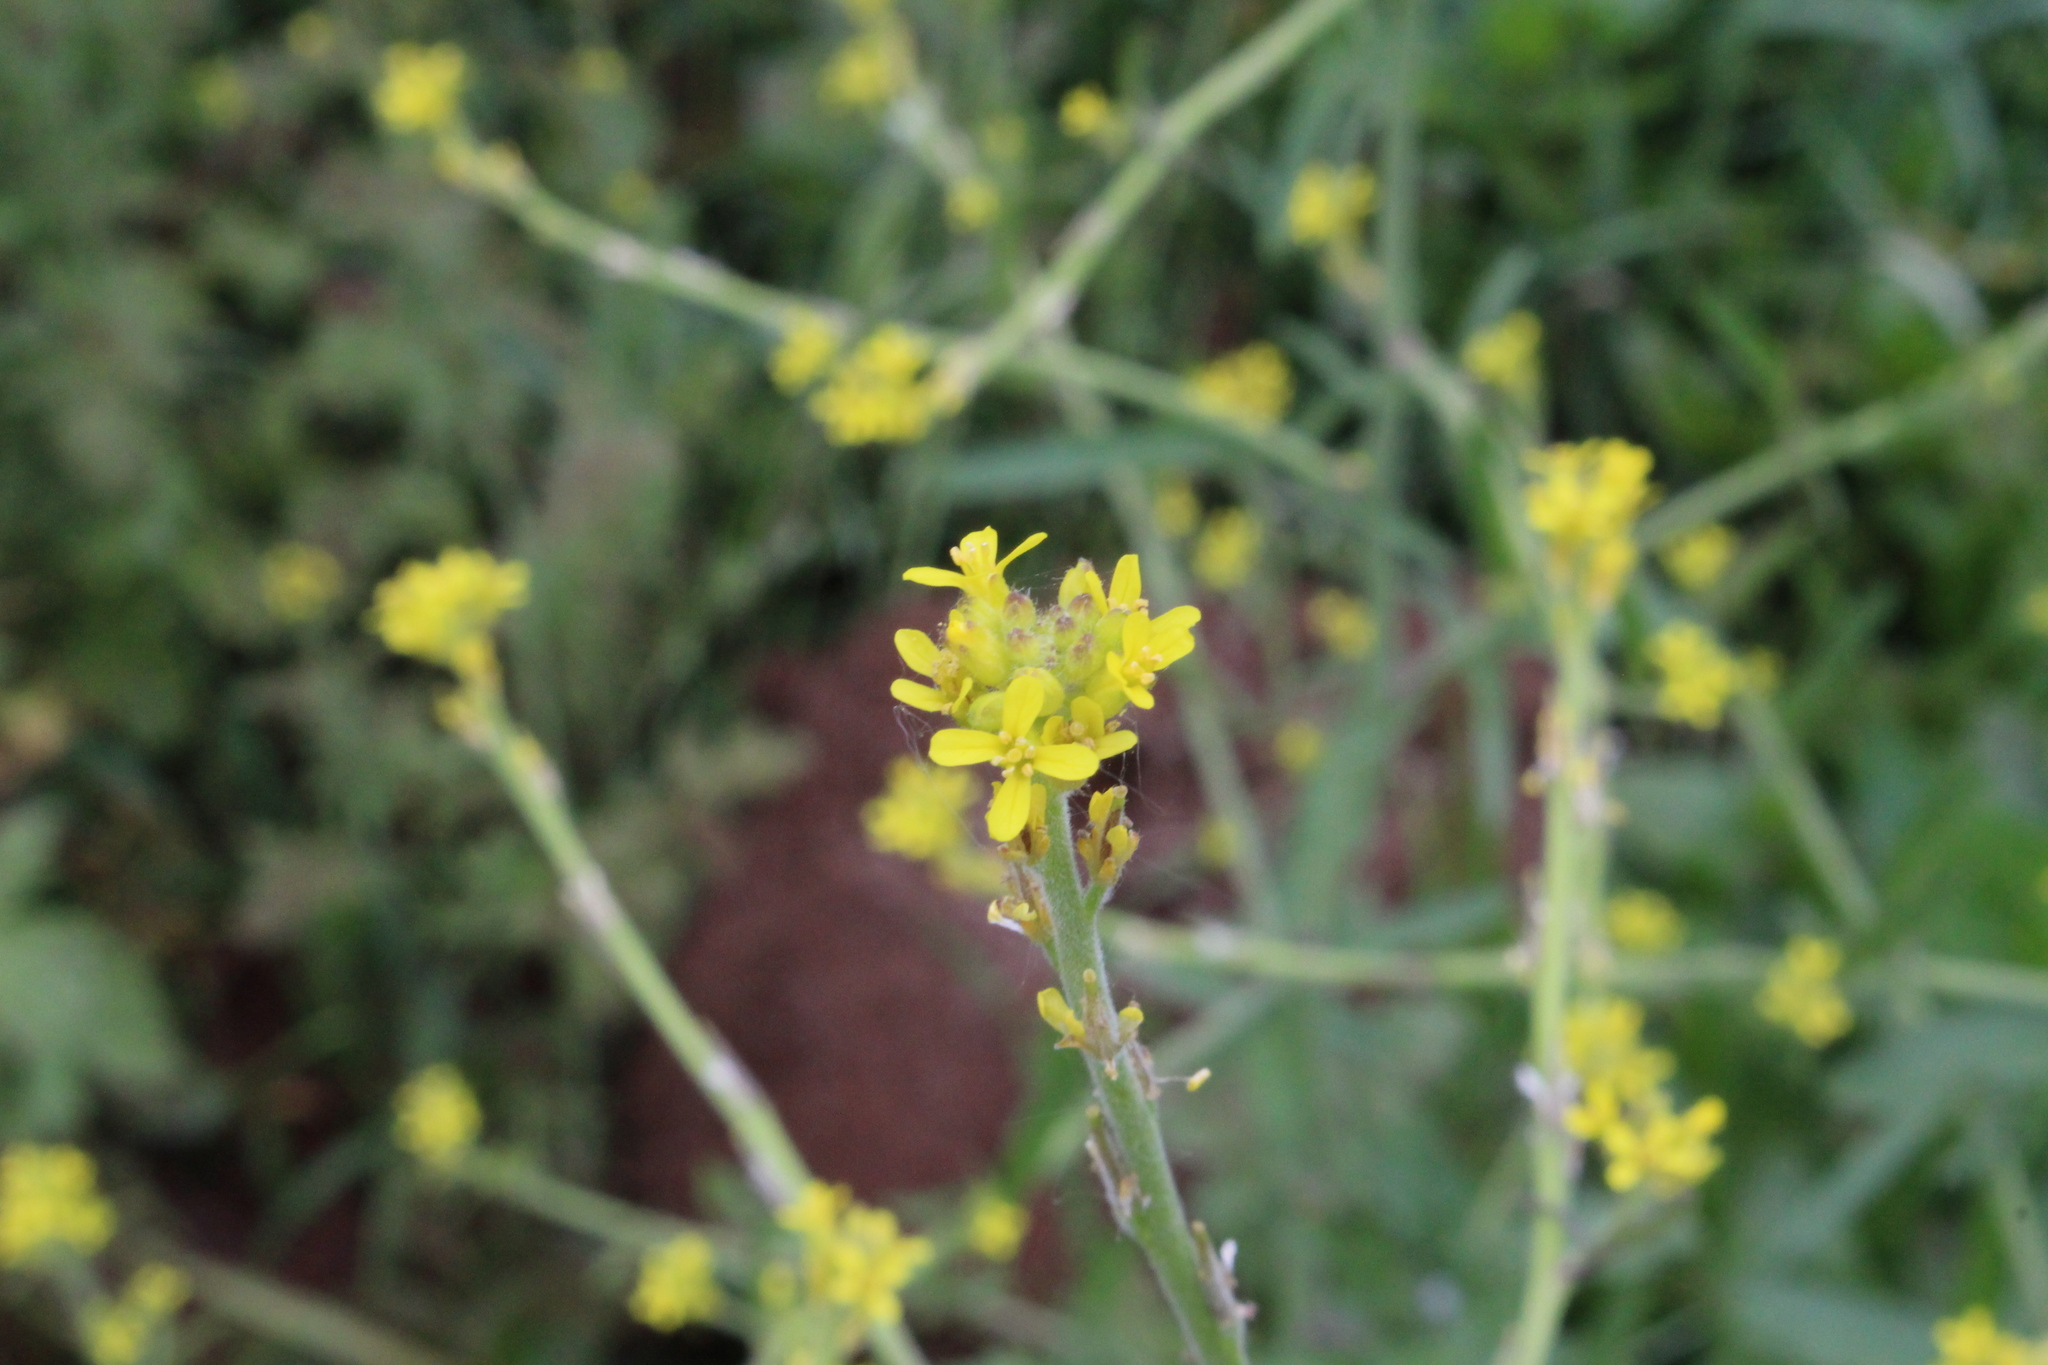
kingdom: Plantae
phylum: Tracheophyta
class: Magnoliopsida
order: Brassicales
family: Brassicaceae
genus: Sisymbrium
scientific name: Sisymbrium officinale
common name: Hedge mustard
